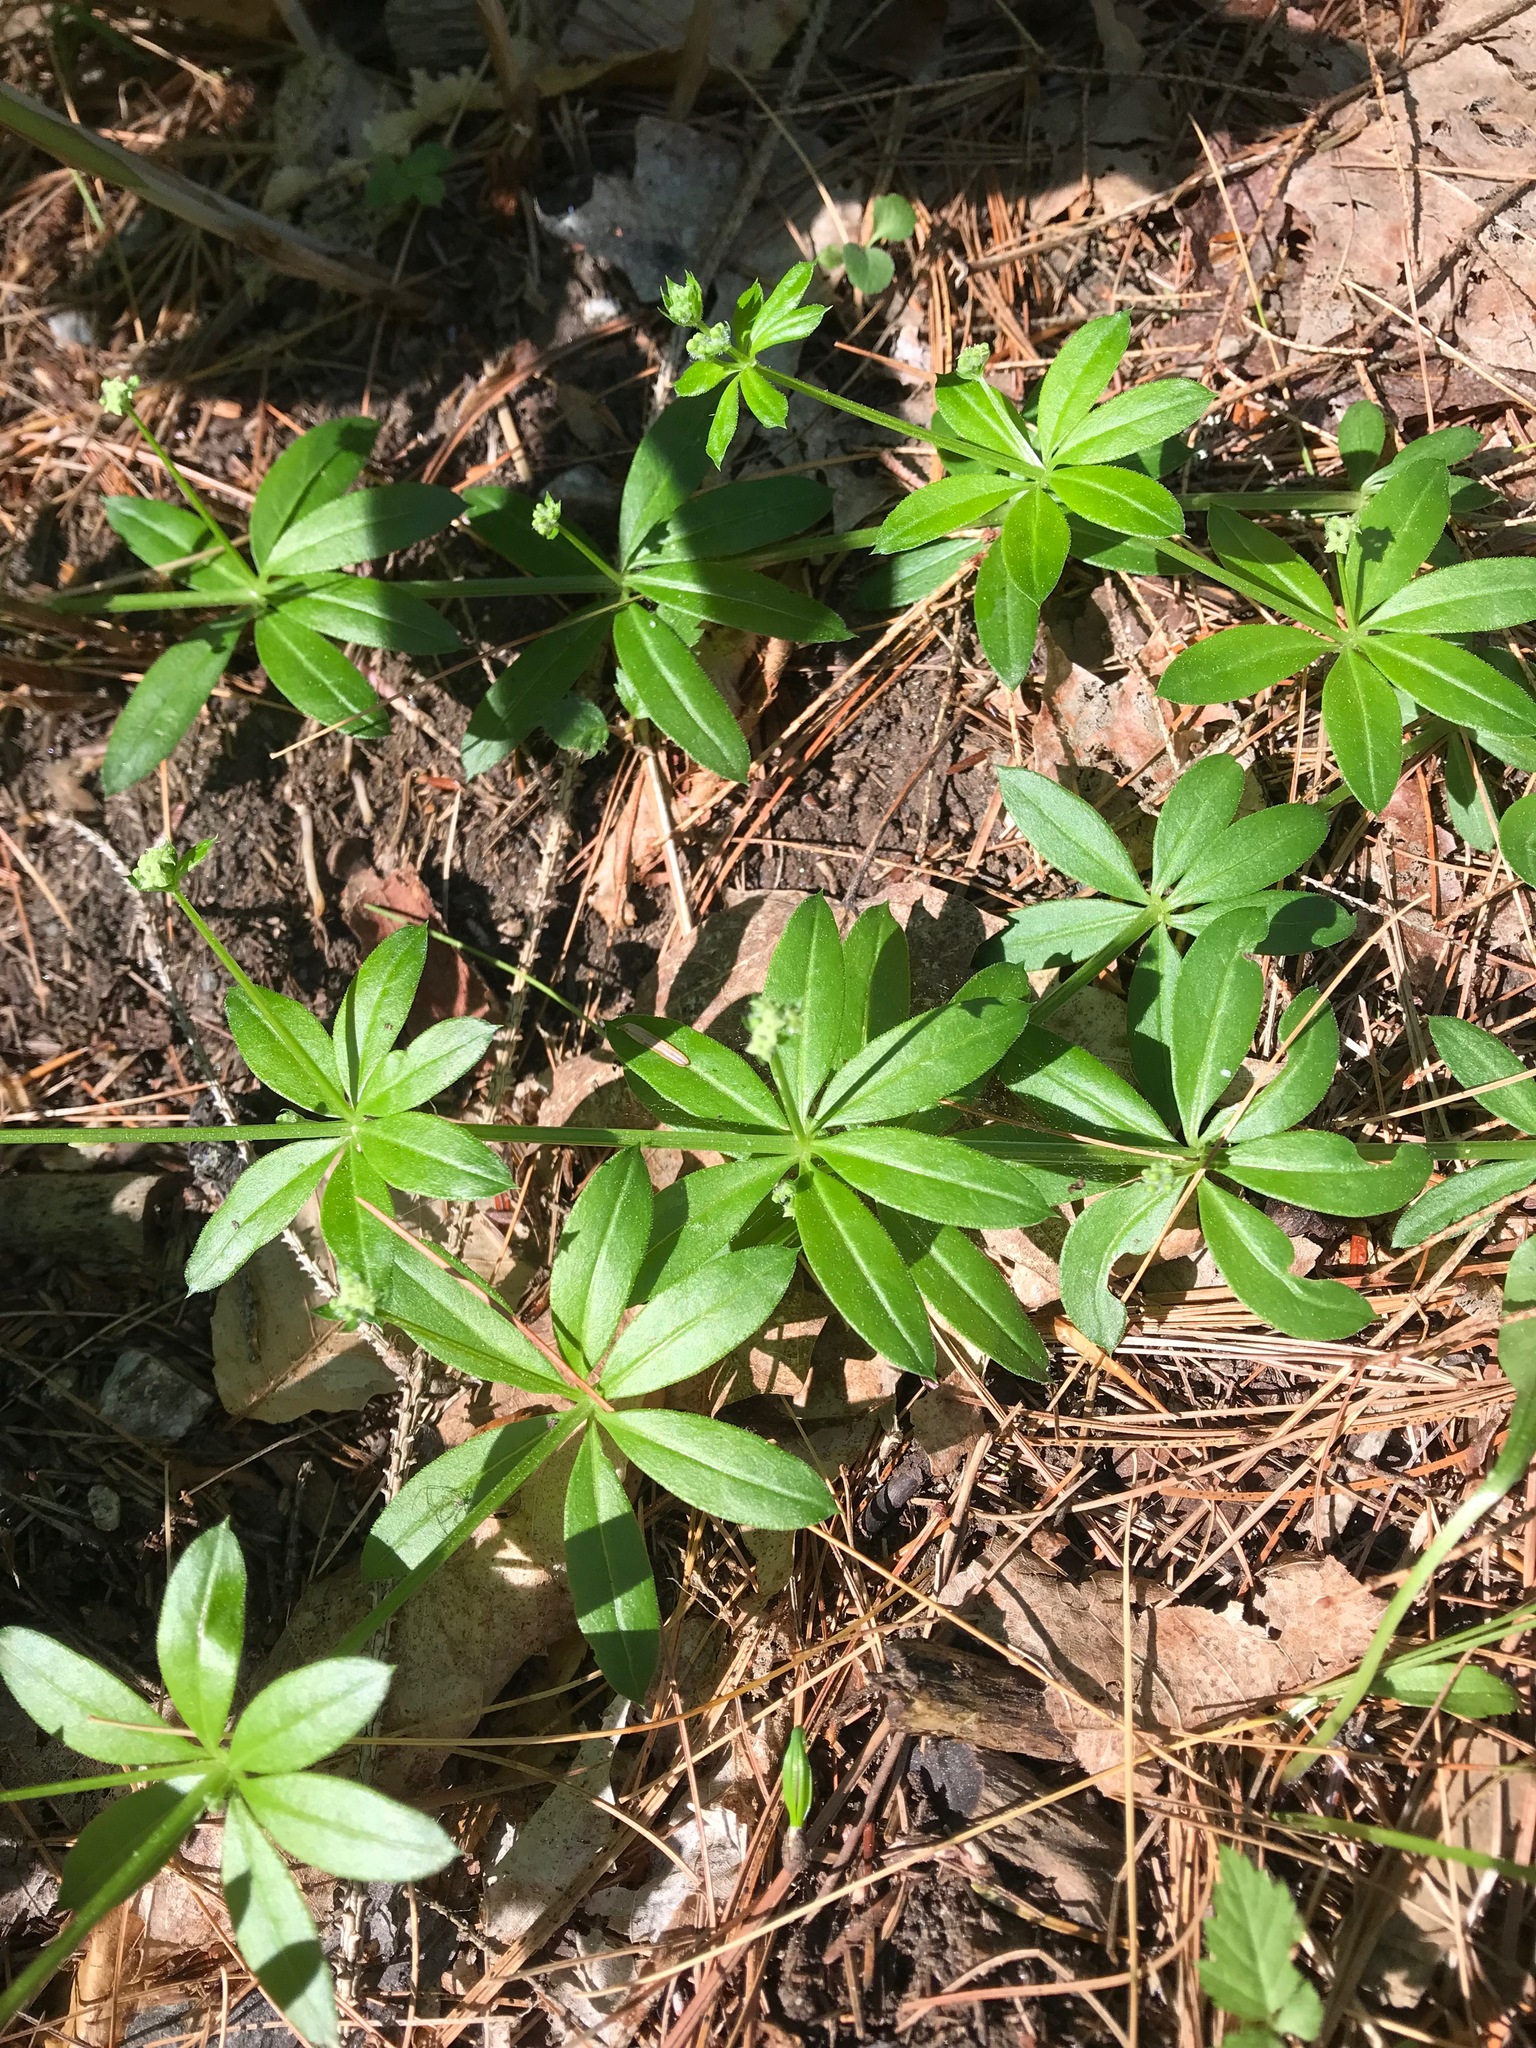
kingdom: Plantae
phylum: Tracheophyta
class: Magnoliopsida
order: Gentianales
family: Rubiaceae
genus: Galium
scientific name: Galium triflorum
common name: Fragrant bedstraw
